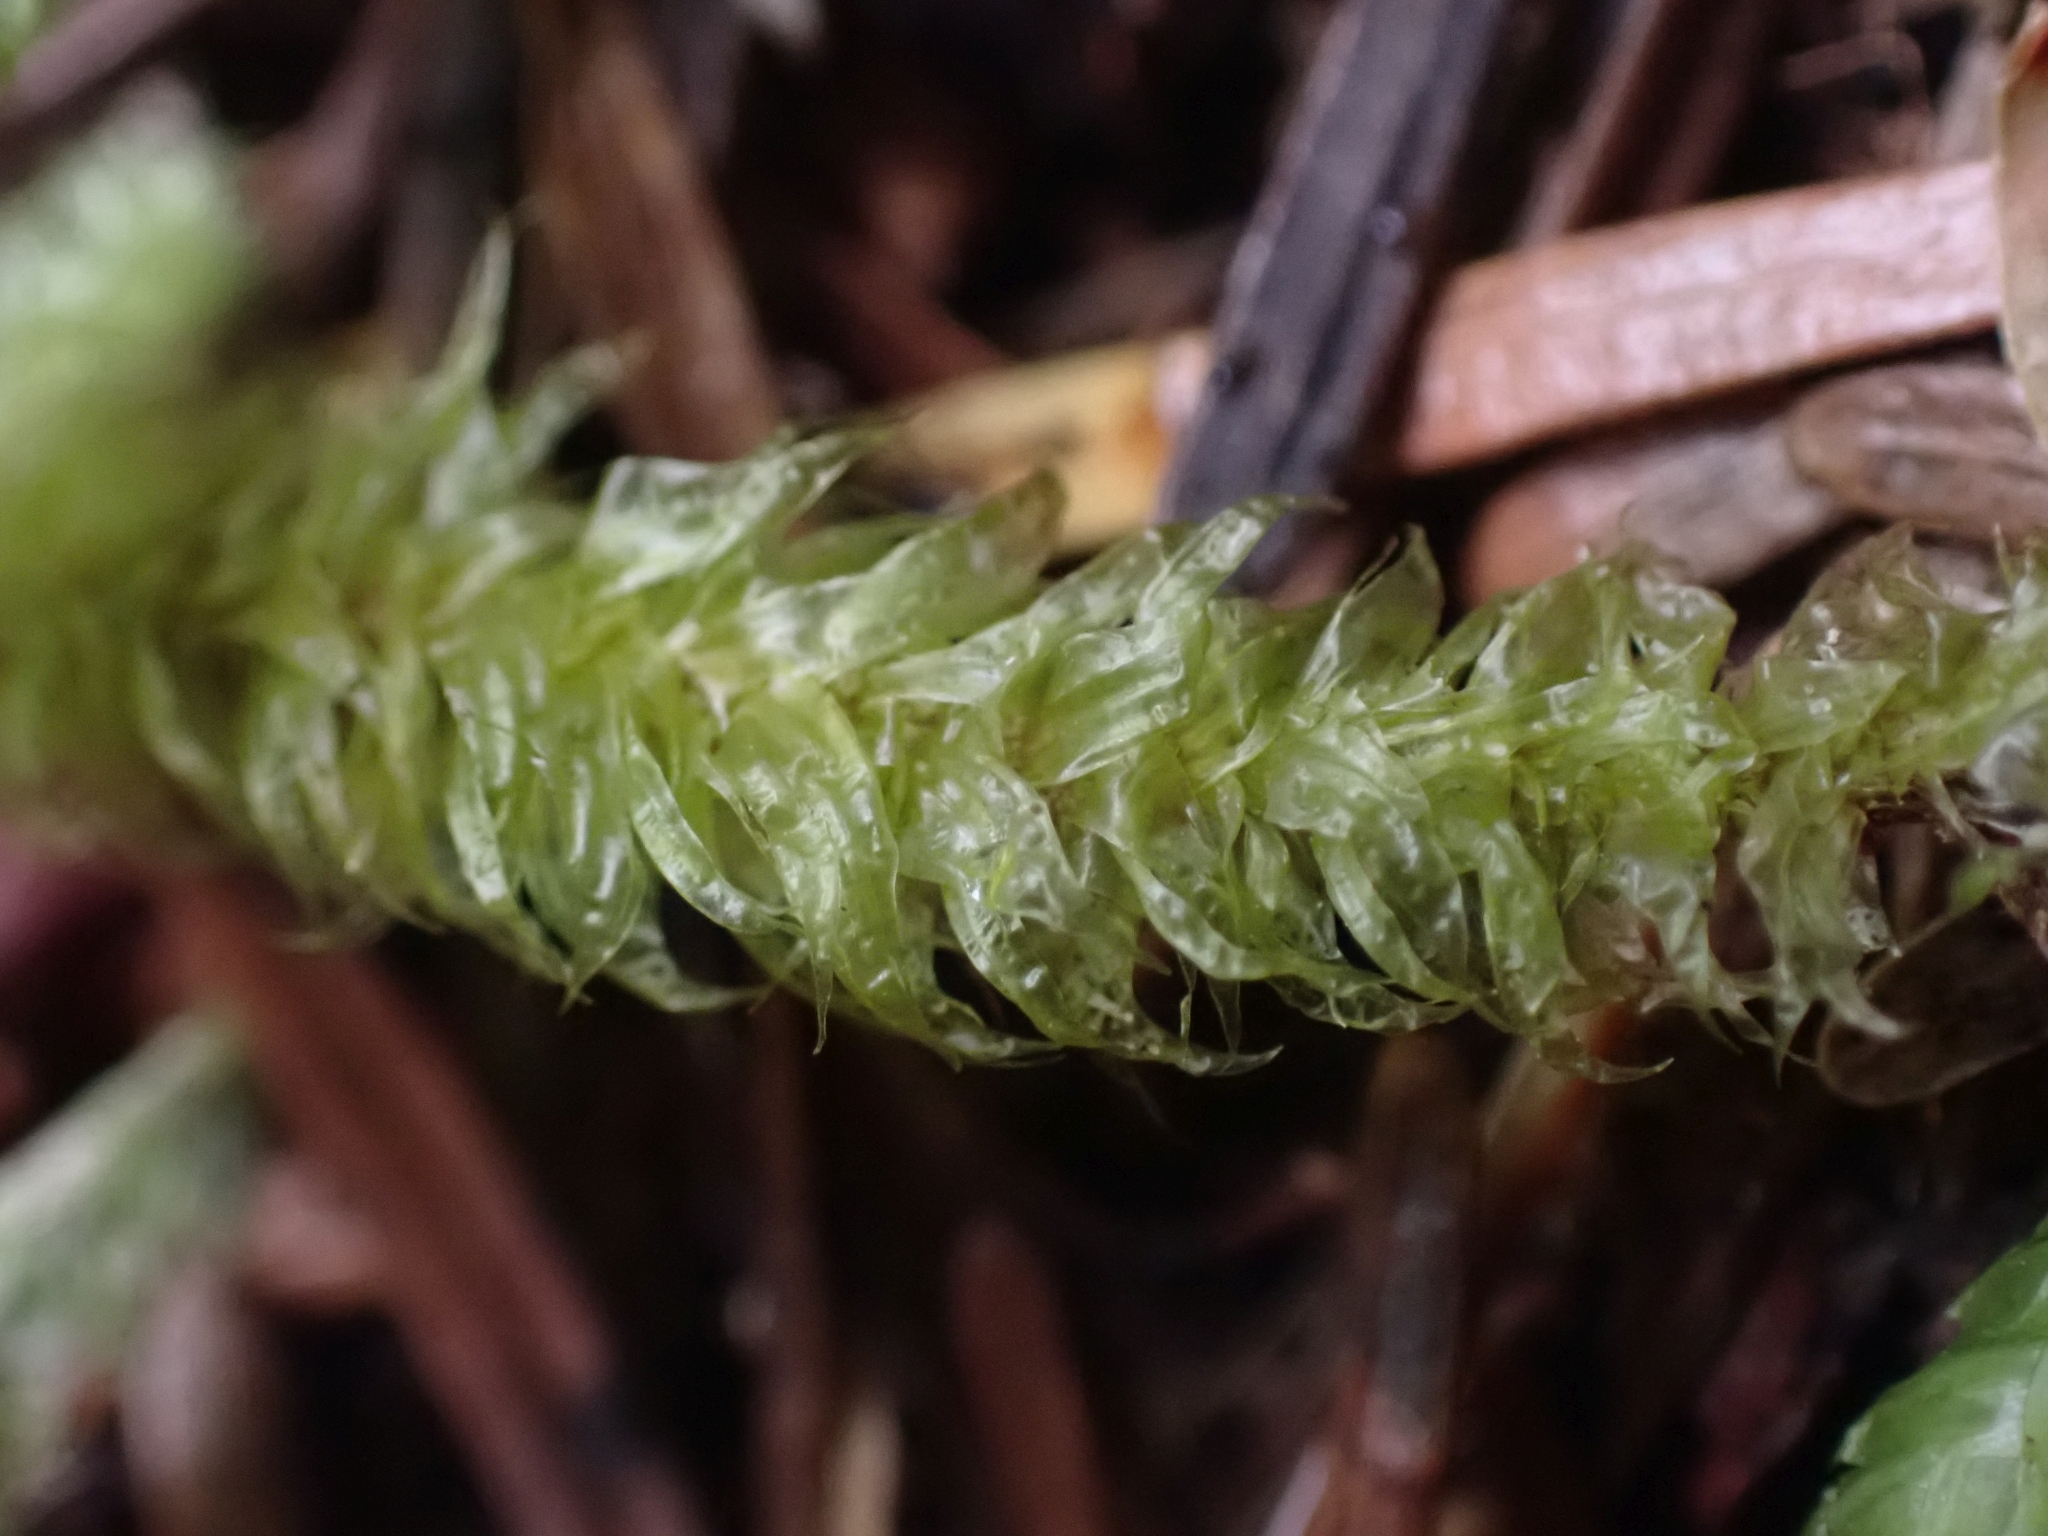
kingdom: Plantae
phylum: Bryophyta
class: Bryopsida
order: Hypnales
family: Plagiotheciaceae
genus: Plagiothecium
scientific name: Plagiothecium undulatum
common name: Waved silk-moss
